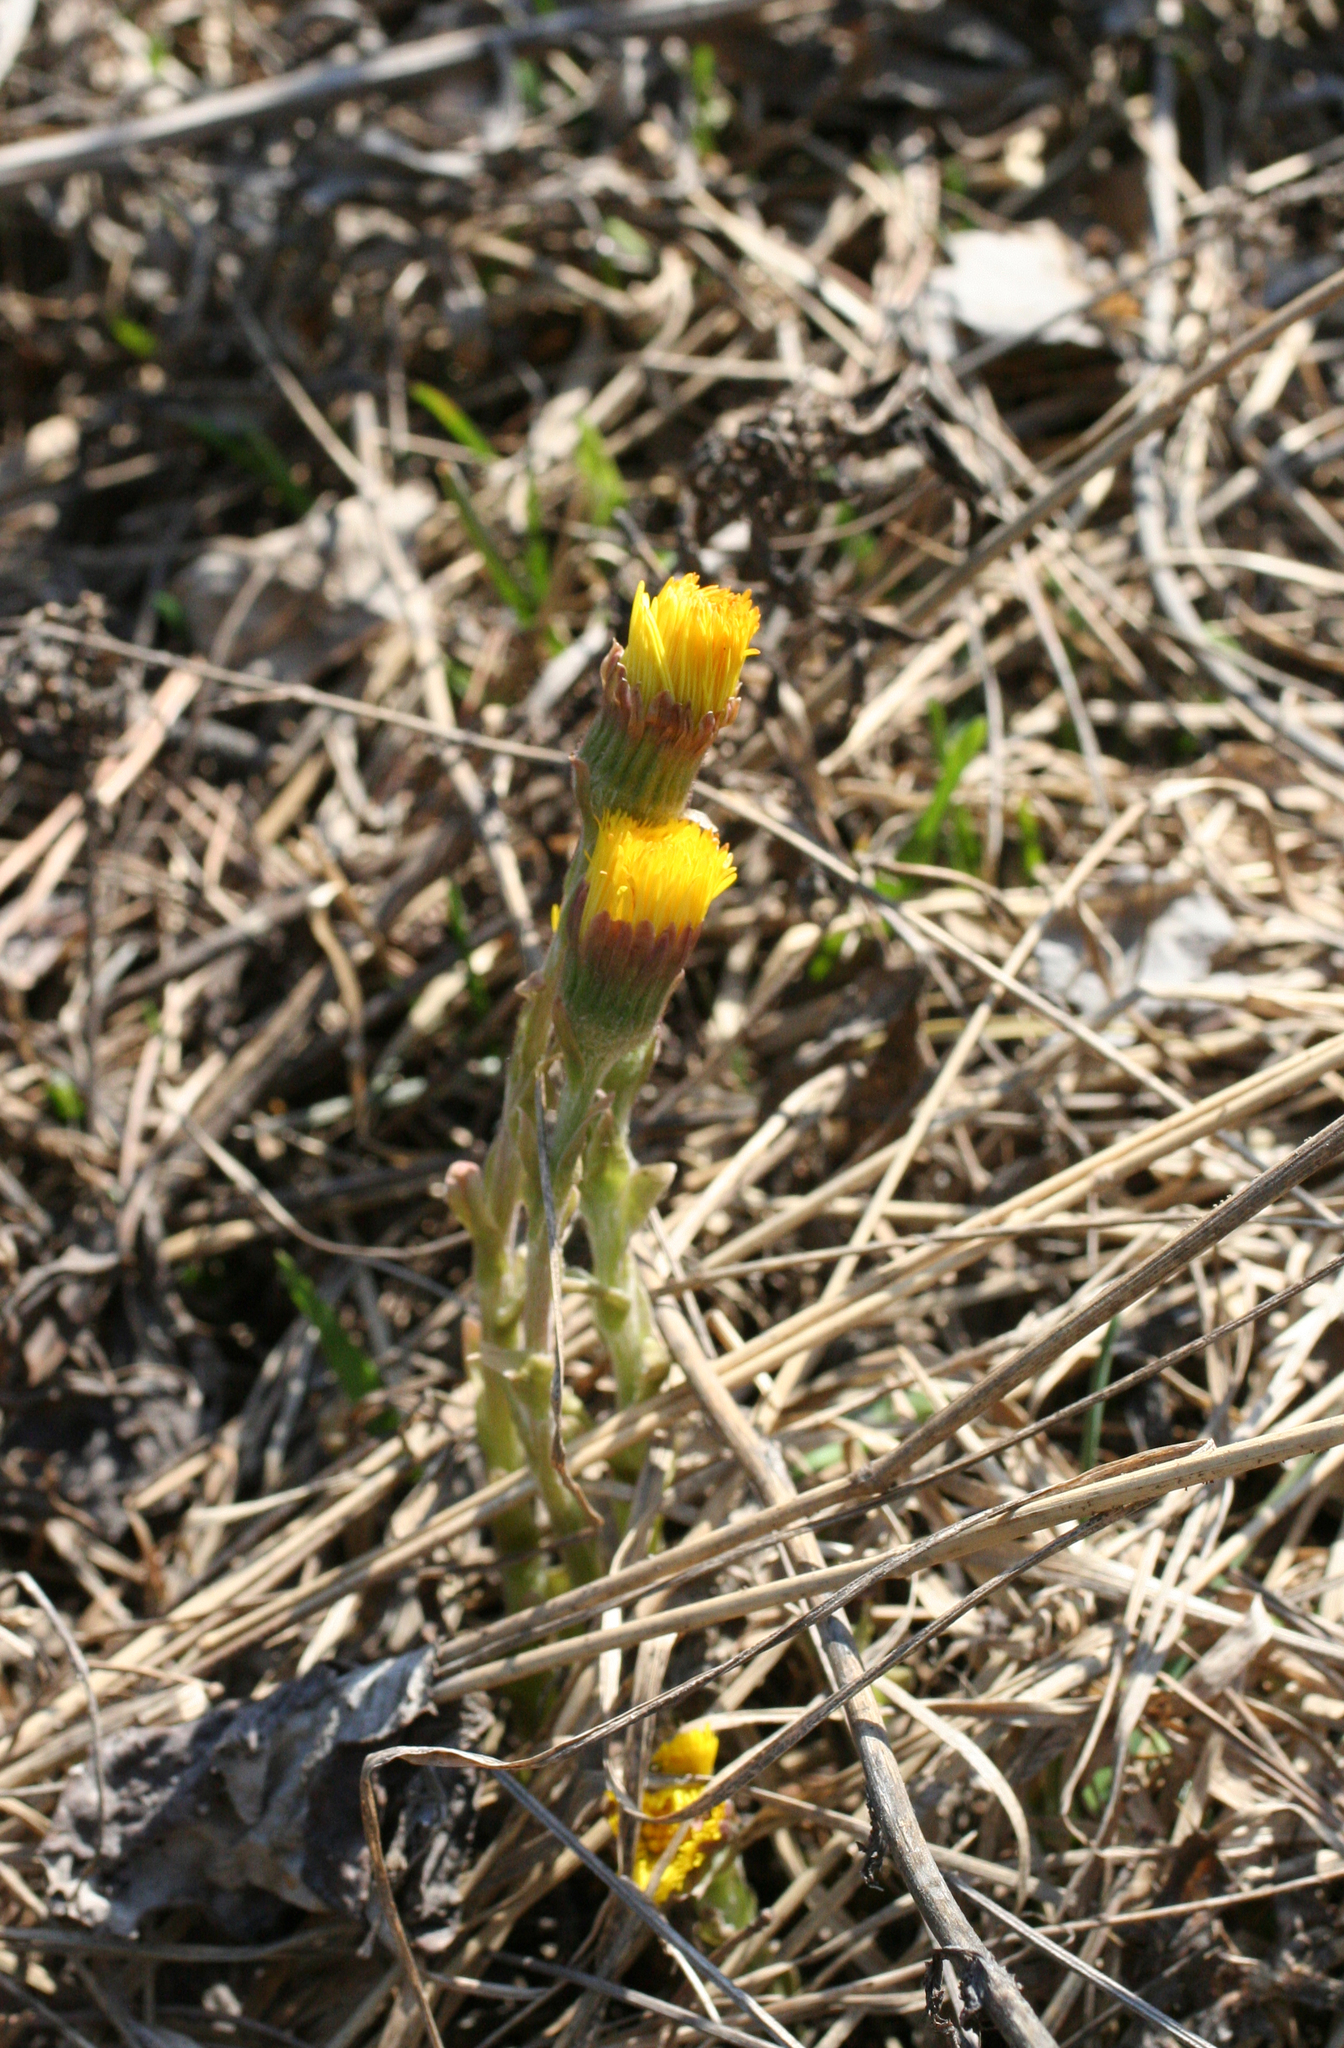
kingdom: Plantae
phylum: Tracheophyta
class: Magnoliopsida
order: Asterales
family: Asteraceae
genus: Tussilago
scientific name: Tussilago farfara
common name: Coltsfoot
